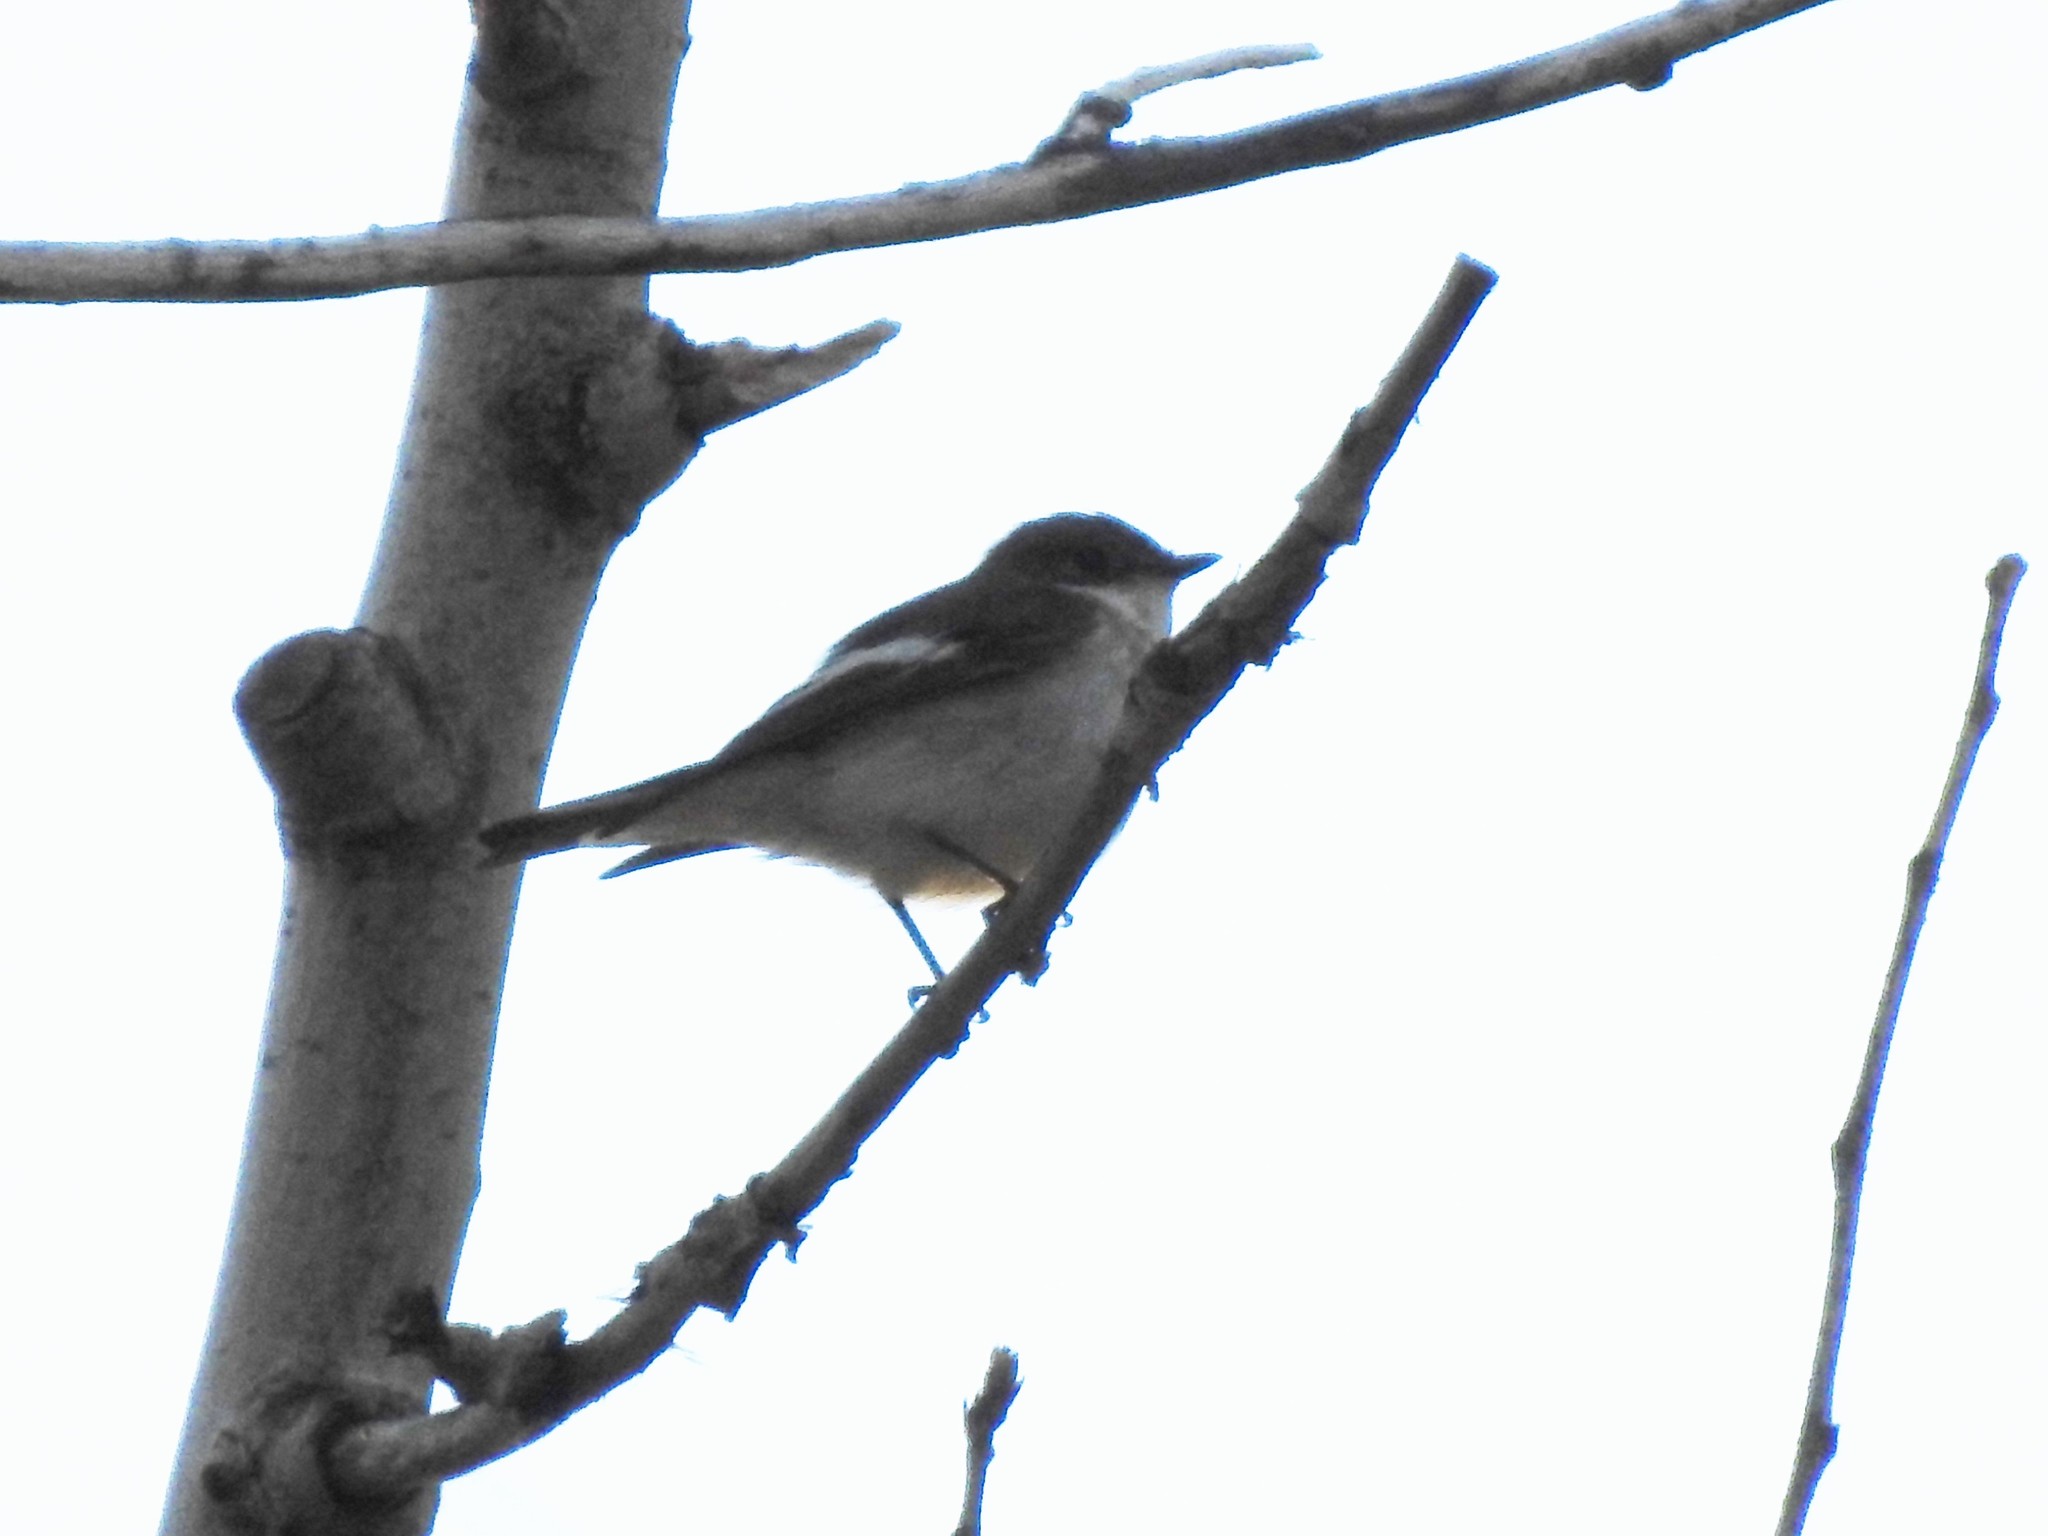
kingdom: Animalia
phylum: Chordata
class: Aves
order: Passeriformes
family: Muscicapidae
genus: Ficedula
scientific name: Ficedula hypoleuca
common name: European pied flycatcher
